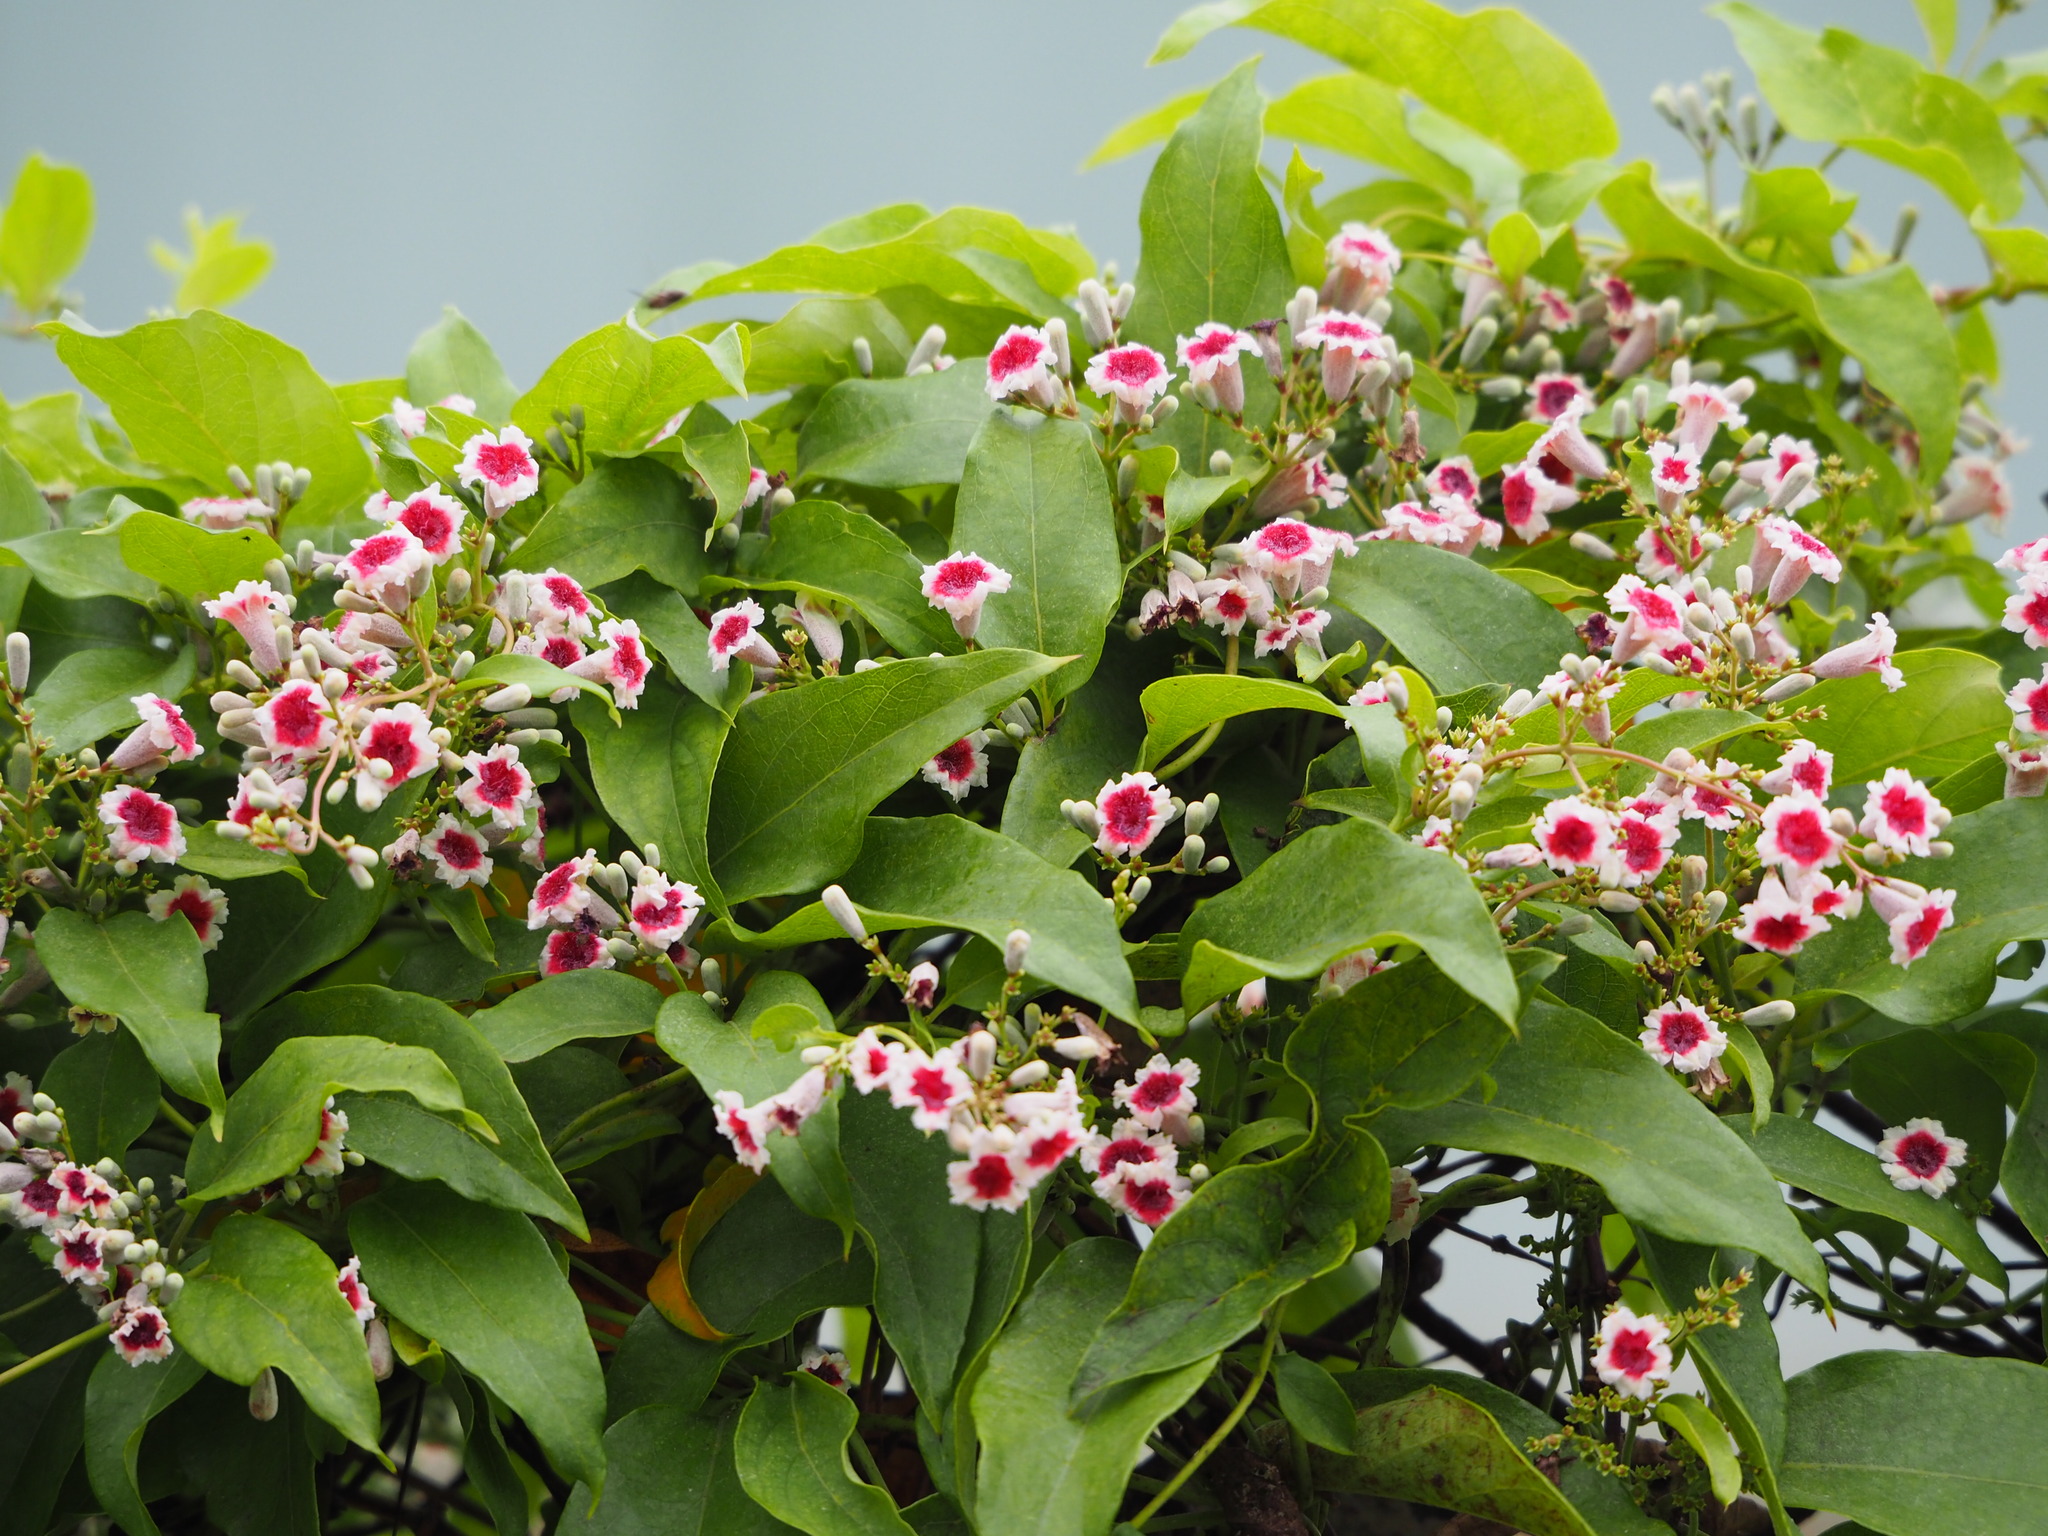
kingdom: Plantae
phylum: Tracheophyta
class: Magnoliopsida
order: Gentianales
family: Rubiaceae
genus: Paederia
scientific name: Paederia foetida
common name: Stinkvine
